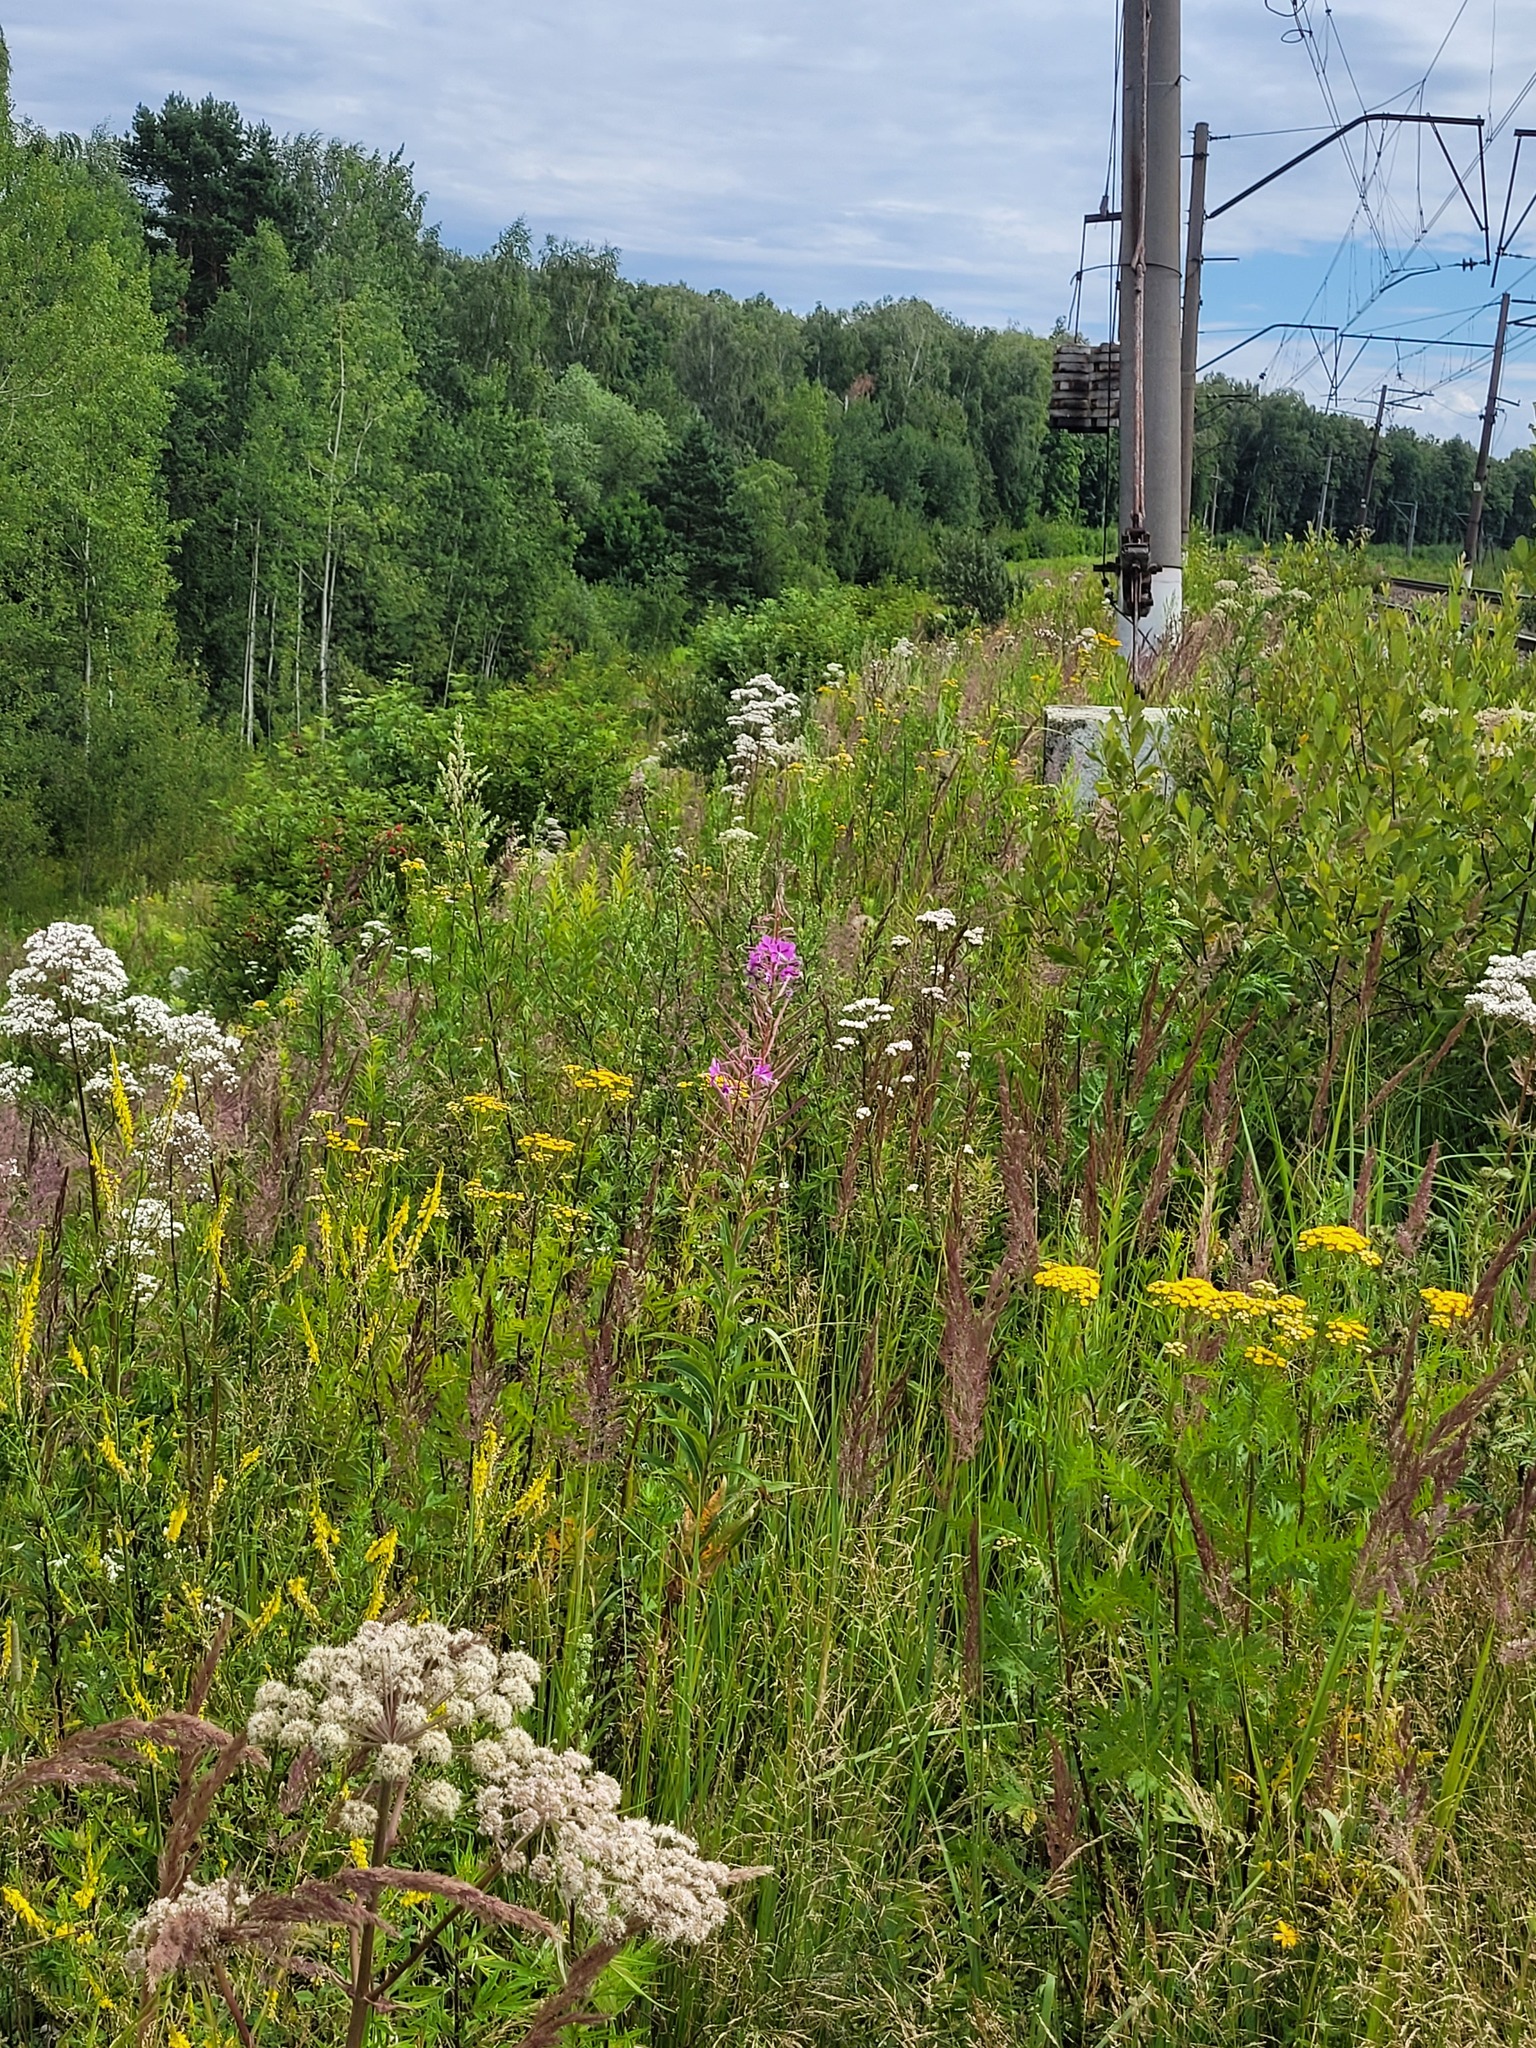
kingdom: Plantae
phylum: Tracheophyta
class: Magnoliopsida
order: Myrtales
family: Onagraceae
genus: Chamaenerion
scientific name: Chamaenerion angustifolium
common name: Fireweed
